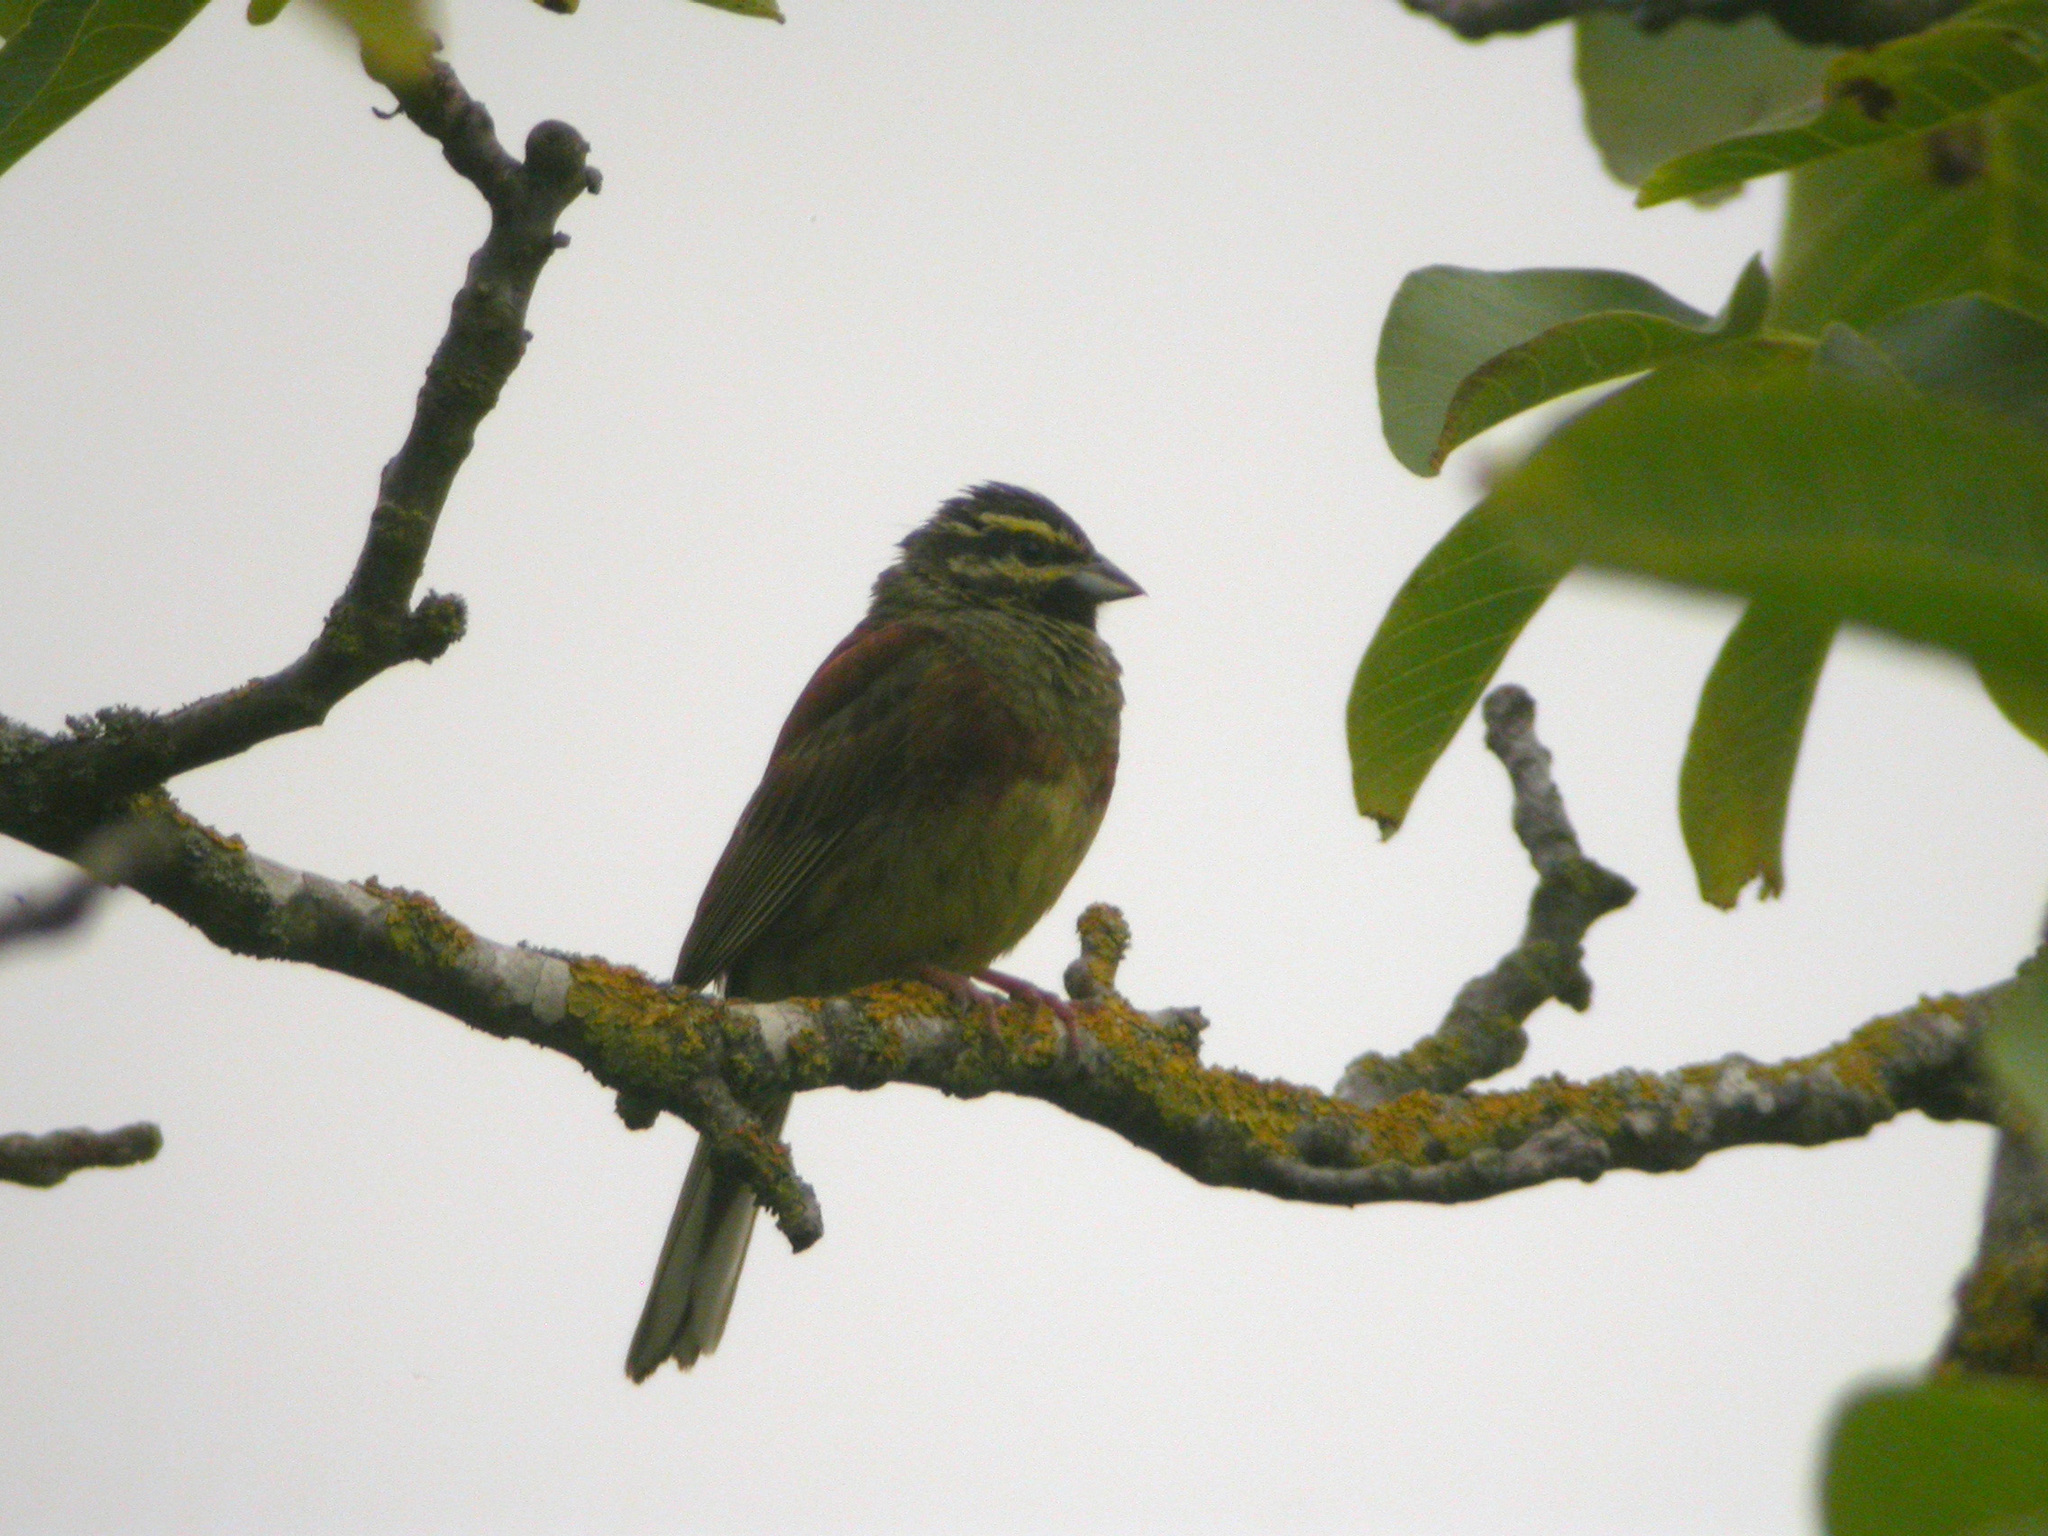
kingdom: Animalia
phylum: Chordata
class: Aves
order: Passeriformes
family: Emberizidae
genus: Emberiza
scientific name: Emberiza cirlus
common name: Cirl bunting
